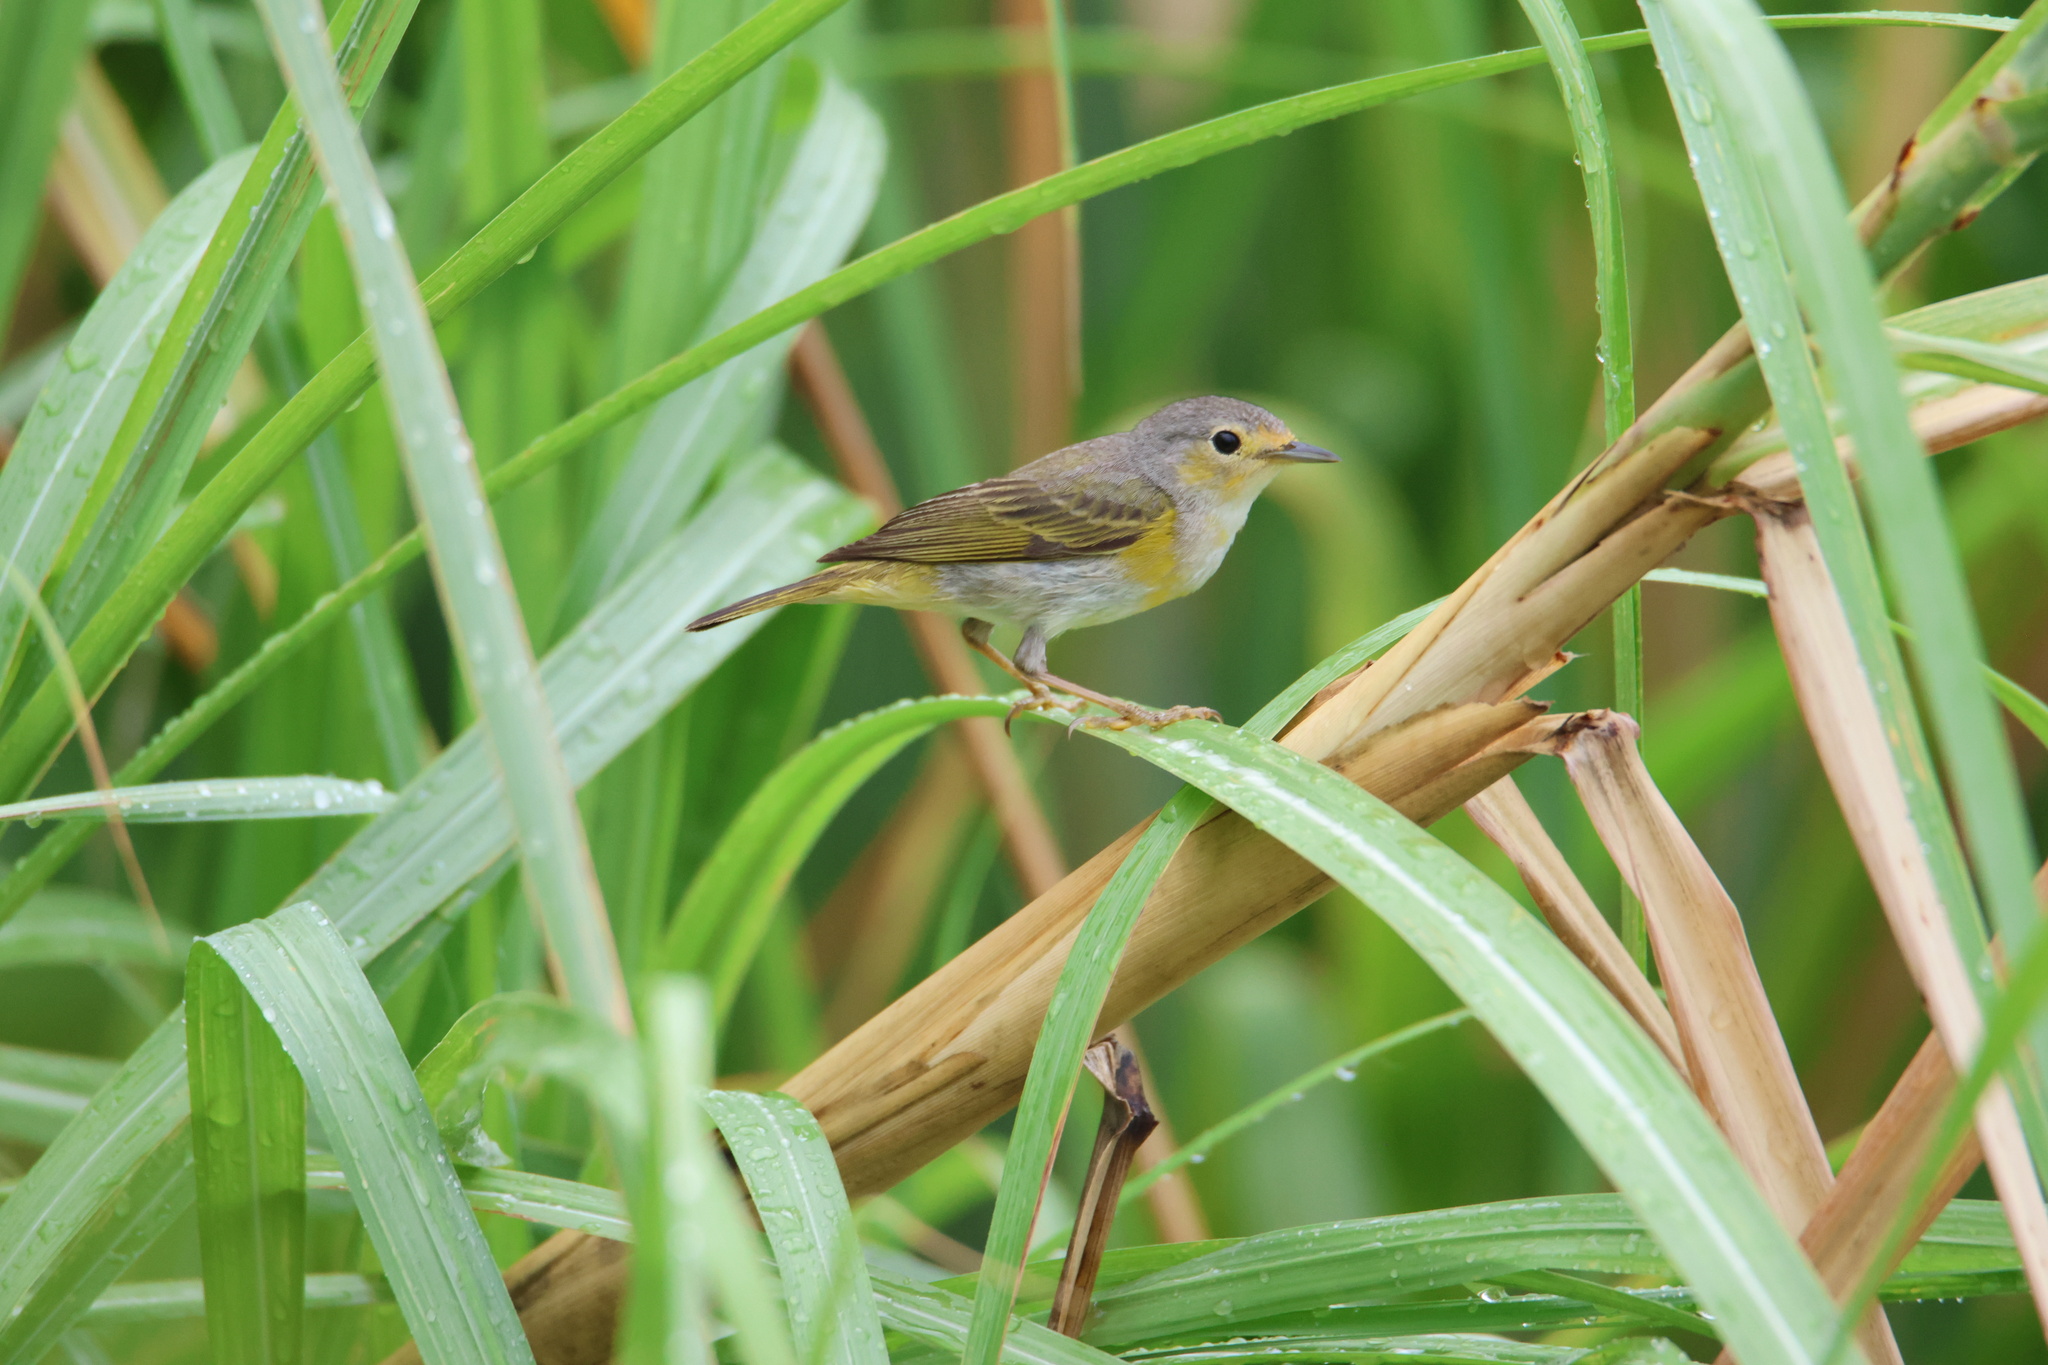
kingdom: Animalia
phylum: Chordata
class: Aves
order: Passeriformes
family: Parulidae
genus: Setophaga
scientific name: Setophaga petechia
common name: Yellow warbler
